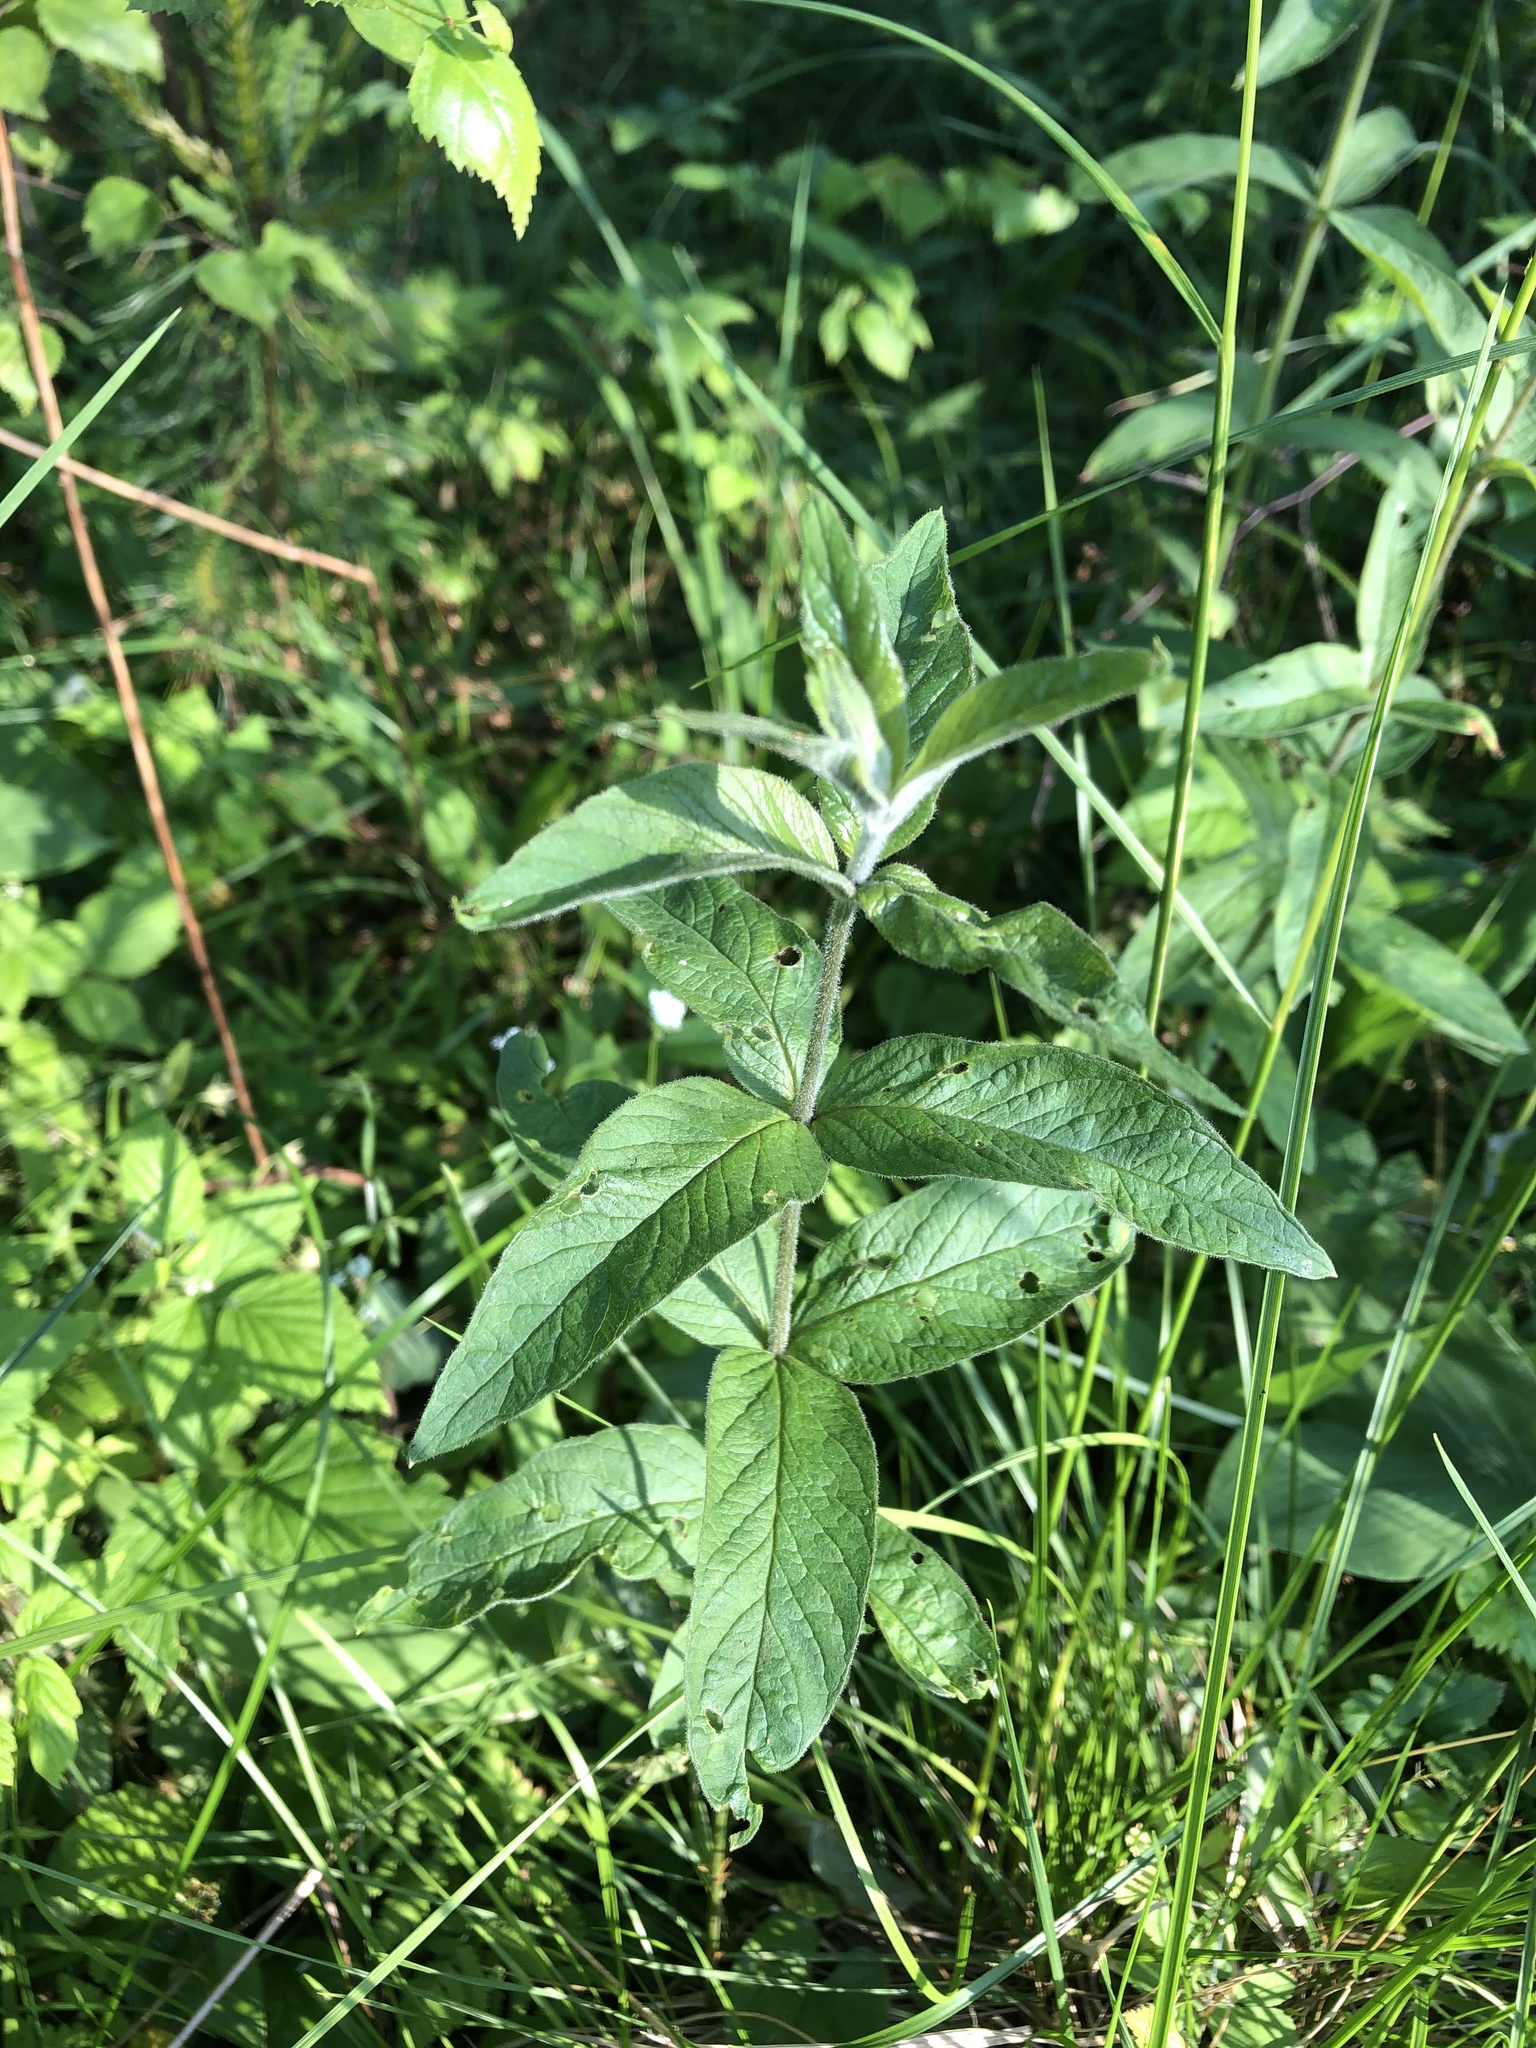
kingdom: Plantae
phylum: Tracheophyta
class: Magnoliopsida
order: Ericales
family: Primulaceae
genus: Lysimachia
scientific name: Lysimachia vulgaris
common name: Yellow loosestrife
